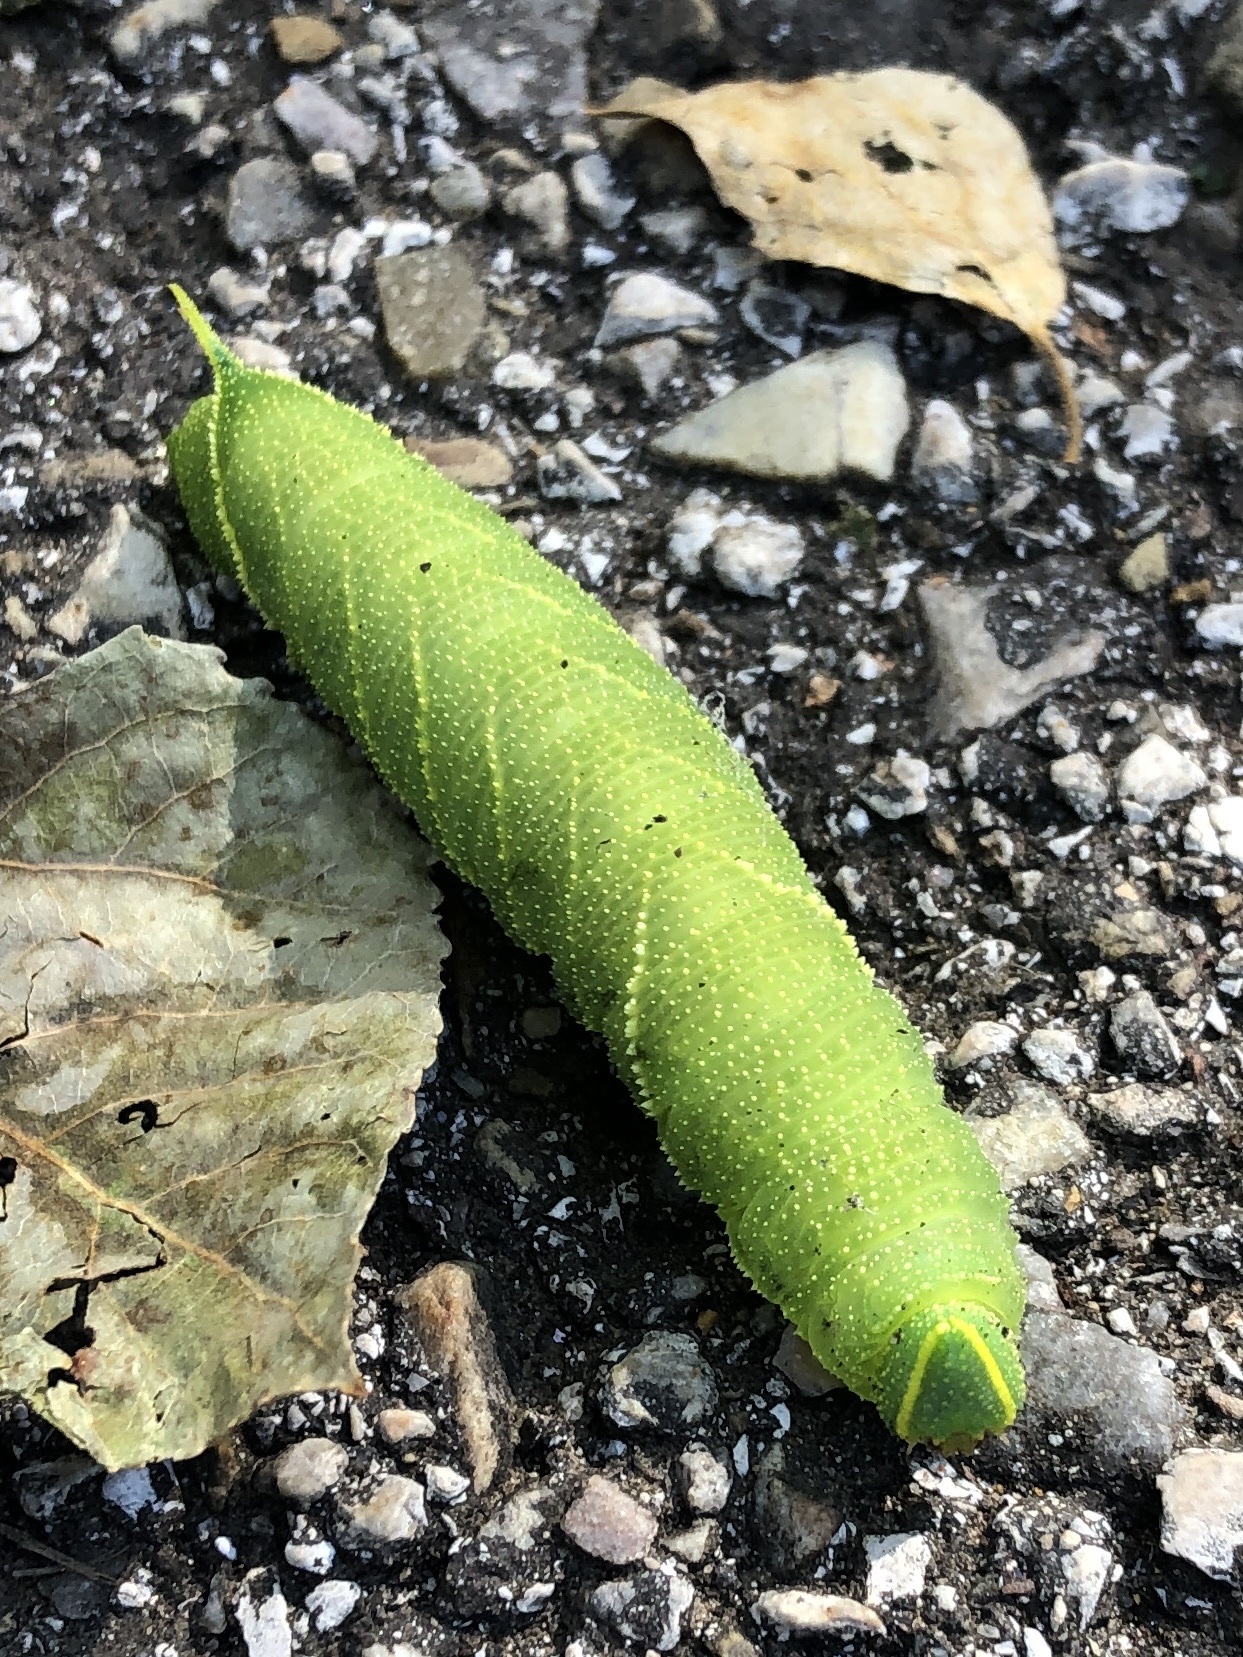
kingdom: Animalia
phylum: Arthropoda
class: Insecta
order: Lepidoptera
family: Sphingidae
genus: Laothoe
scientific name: Laothoe populi
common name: Poplar hawk-moth
